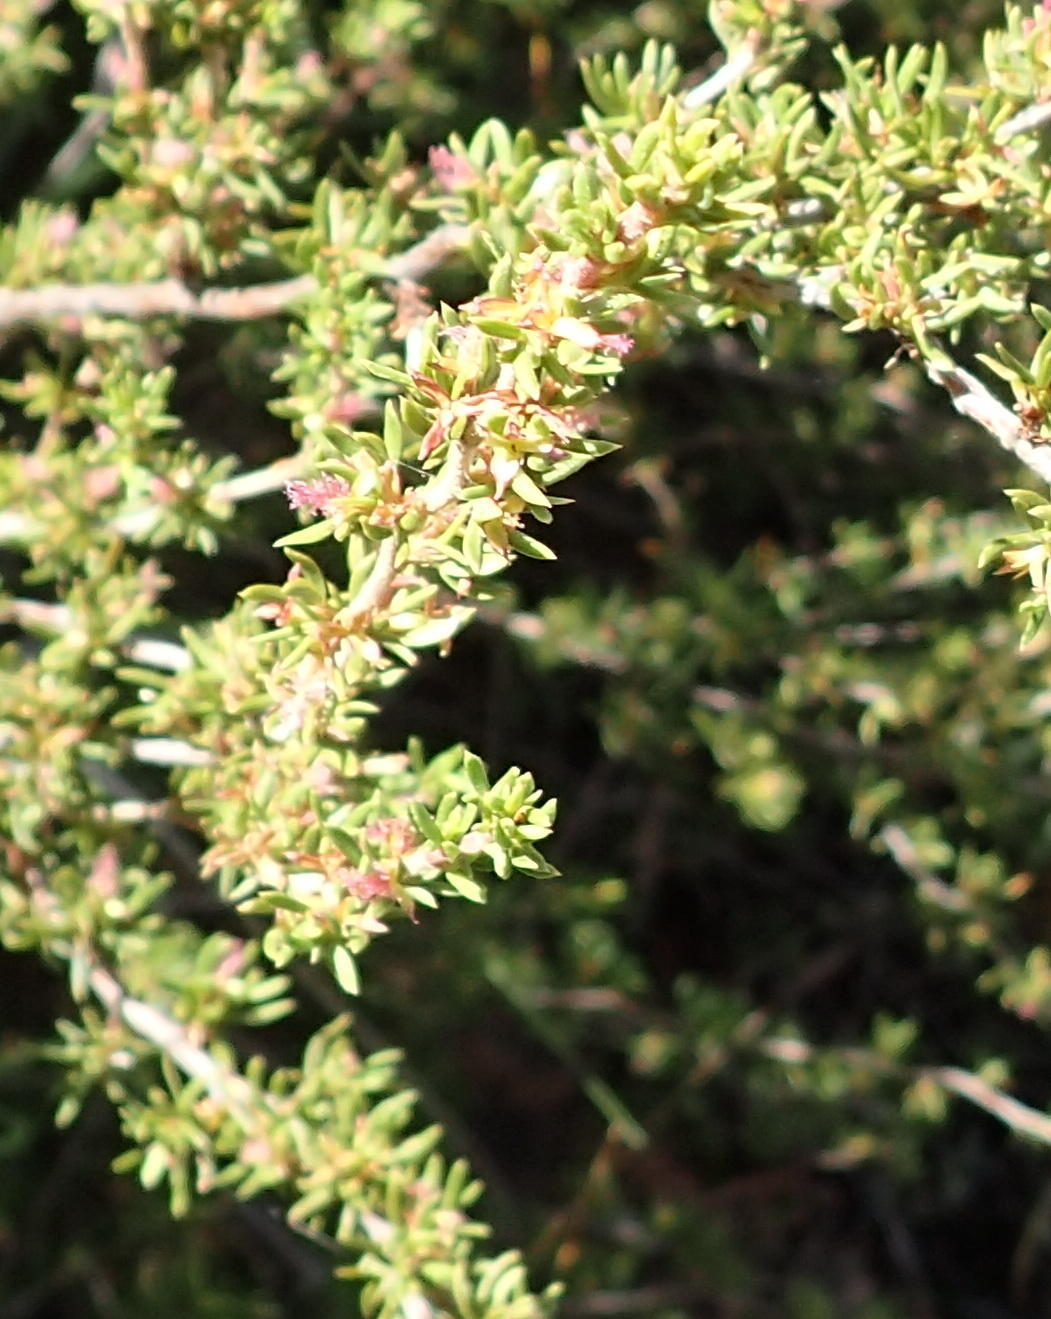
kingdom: Plantae
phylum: Tracheophyta
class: Magnoliopsida
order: Rosales
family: Rosaceae
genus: Cliffortia
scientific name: Cliffortia arcuata
